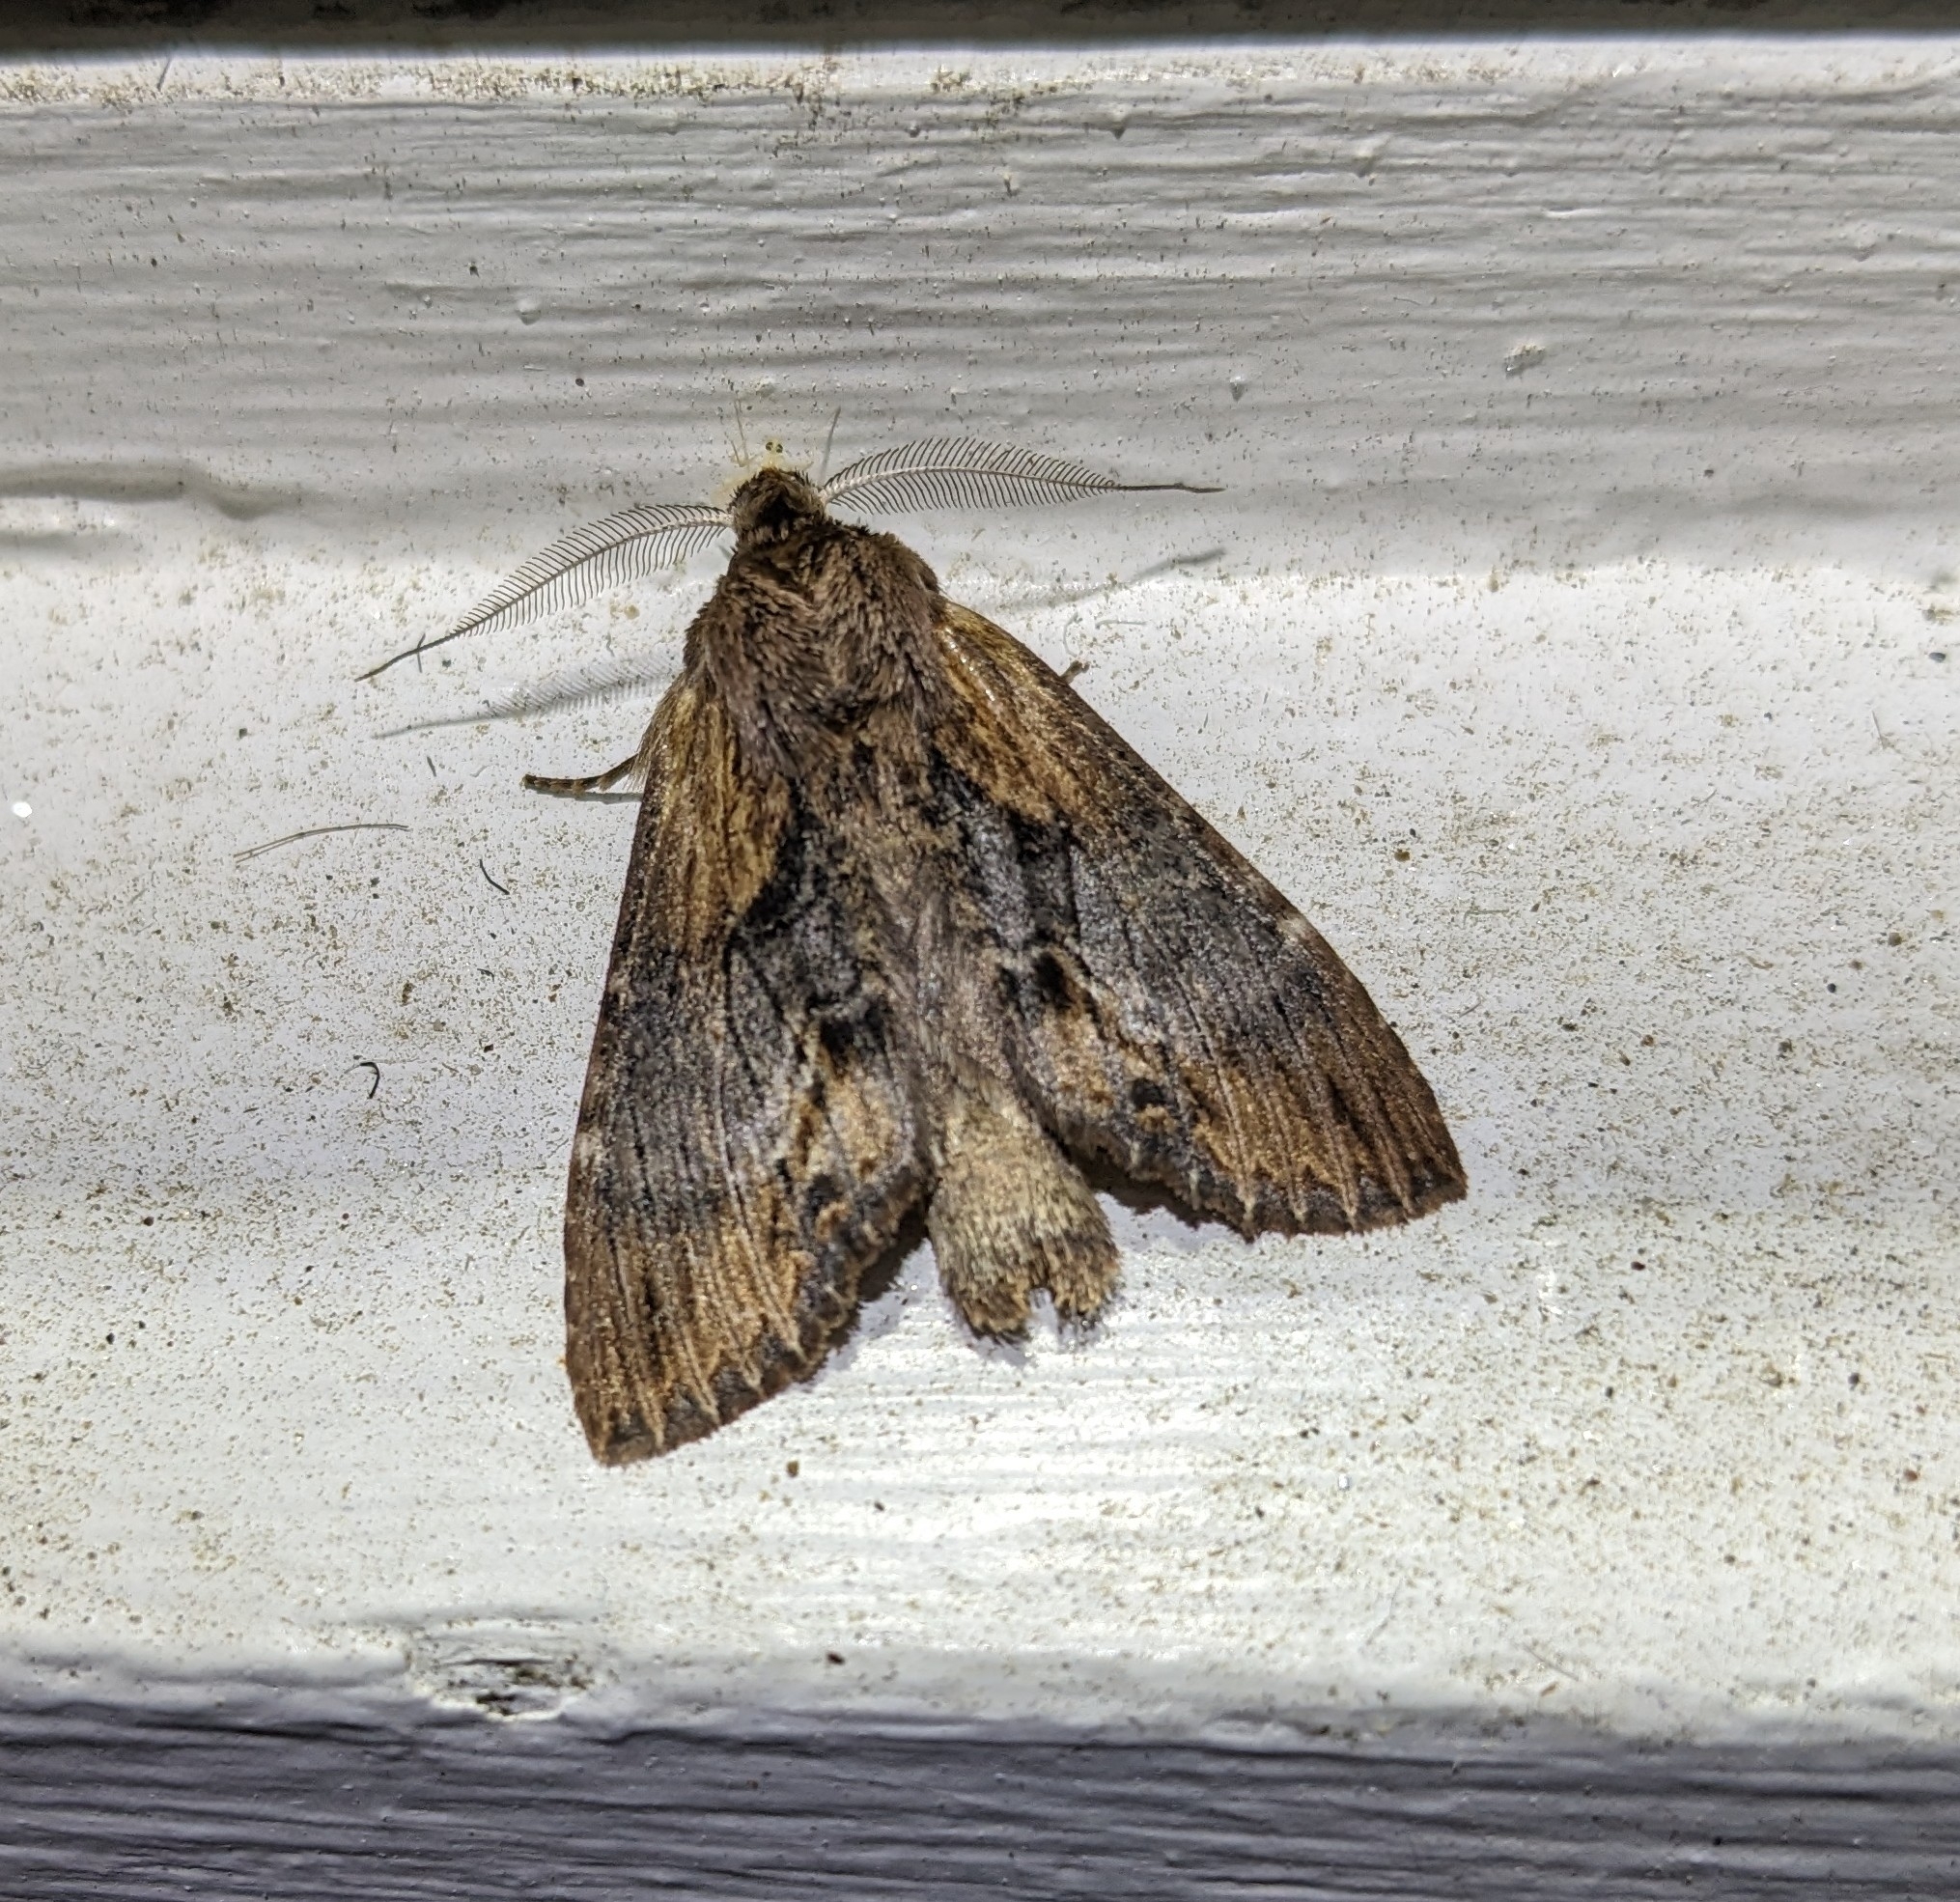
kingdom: Animalia
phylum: Arthropoda
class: Insecta
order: Lepidoptera
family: Notodontidae
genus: Dasylophia
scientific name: Dasylophia thyatiroides
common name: Gray-patched prominent
